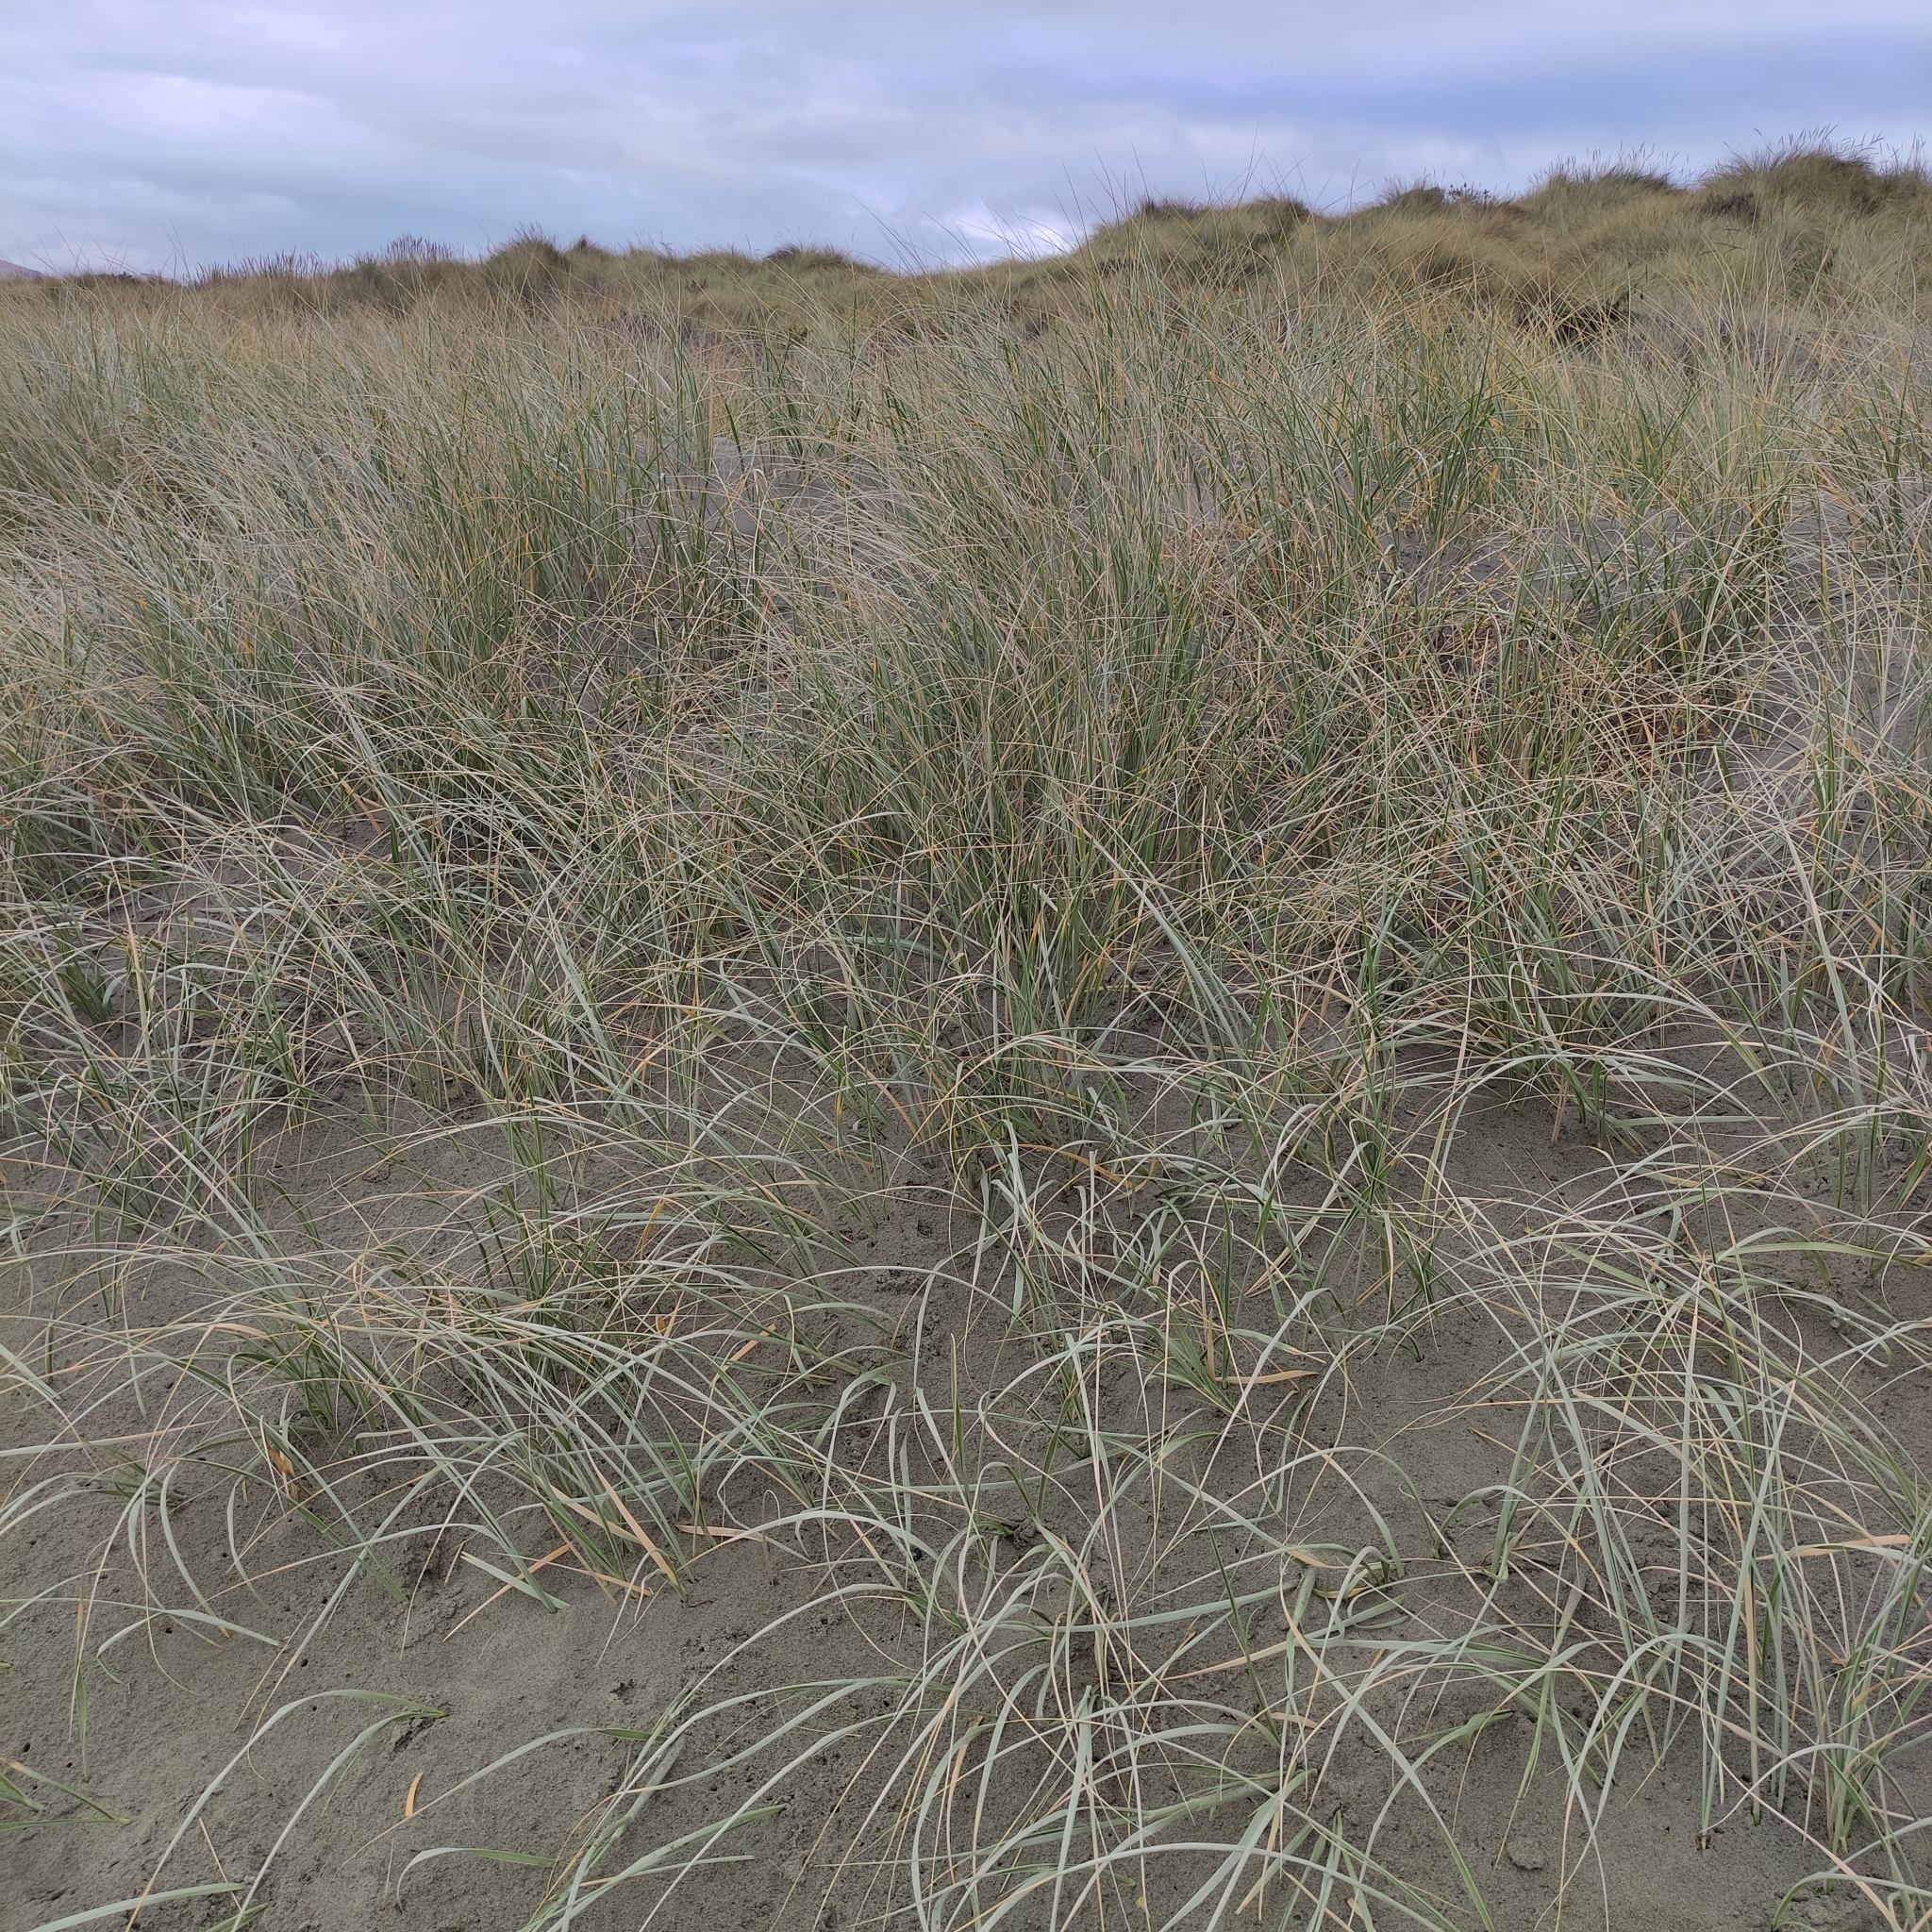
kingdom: Plantae
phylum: Tracheophyta
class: Liliopsida
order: Poales
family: Poaceae
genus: Spinifex
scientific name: Spinifex sericeus
